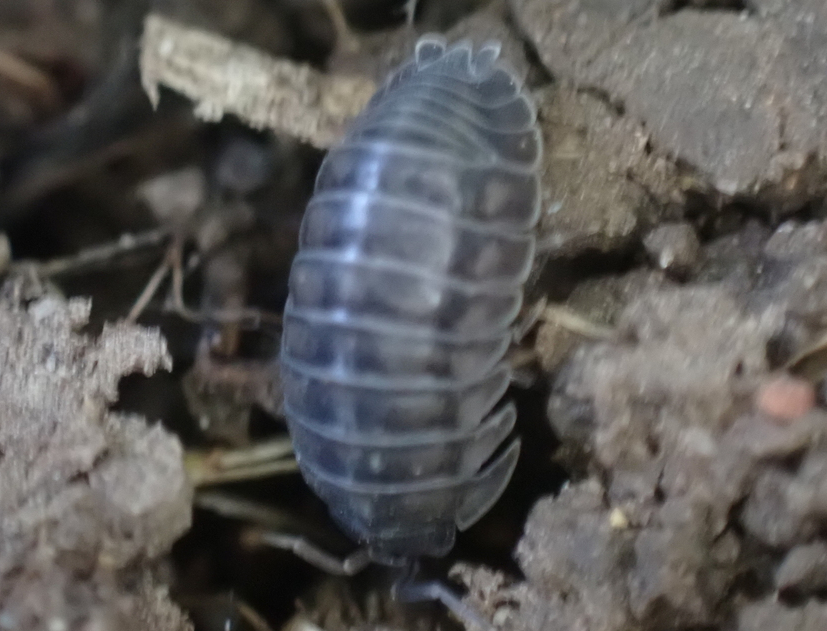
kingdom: Animalia
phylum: Arthropoda
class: Malacostraca
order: Isopoda
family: Armadillidiidae
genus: Armadillidium
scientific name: Armadillidium nasatum
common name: Isopod
